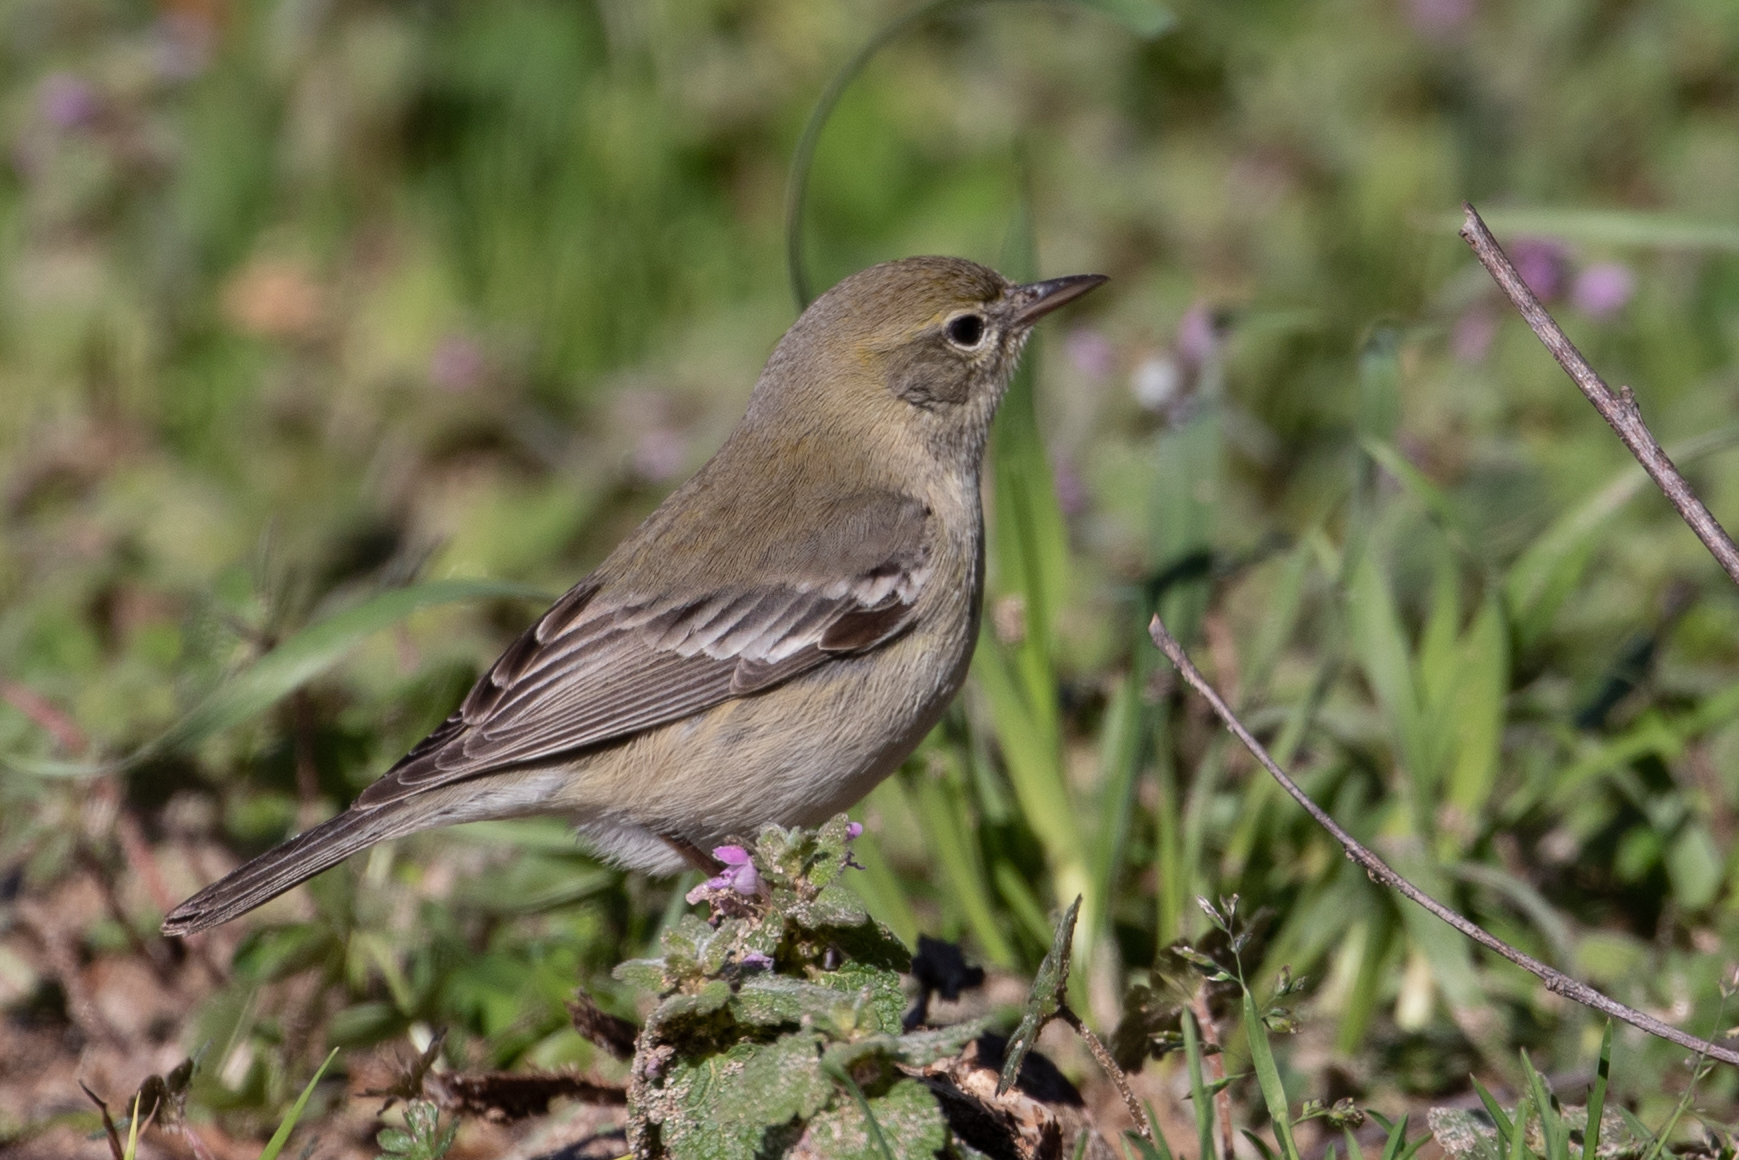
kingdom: Animalia
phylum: Chordata
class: Aves
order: Passeriformes
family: Parulidae
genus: Setophaga
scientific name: Setophaga pinus
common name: Pine warbler
